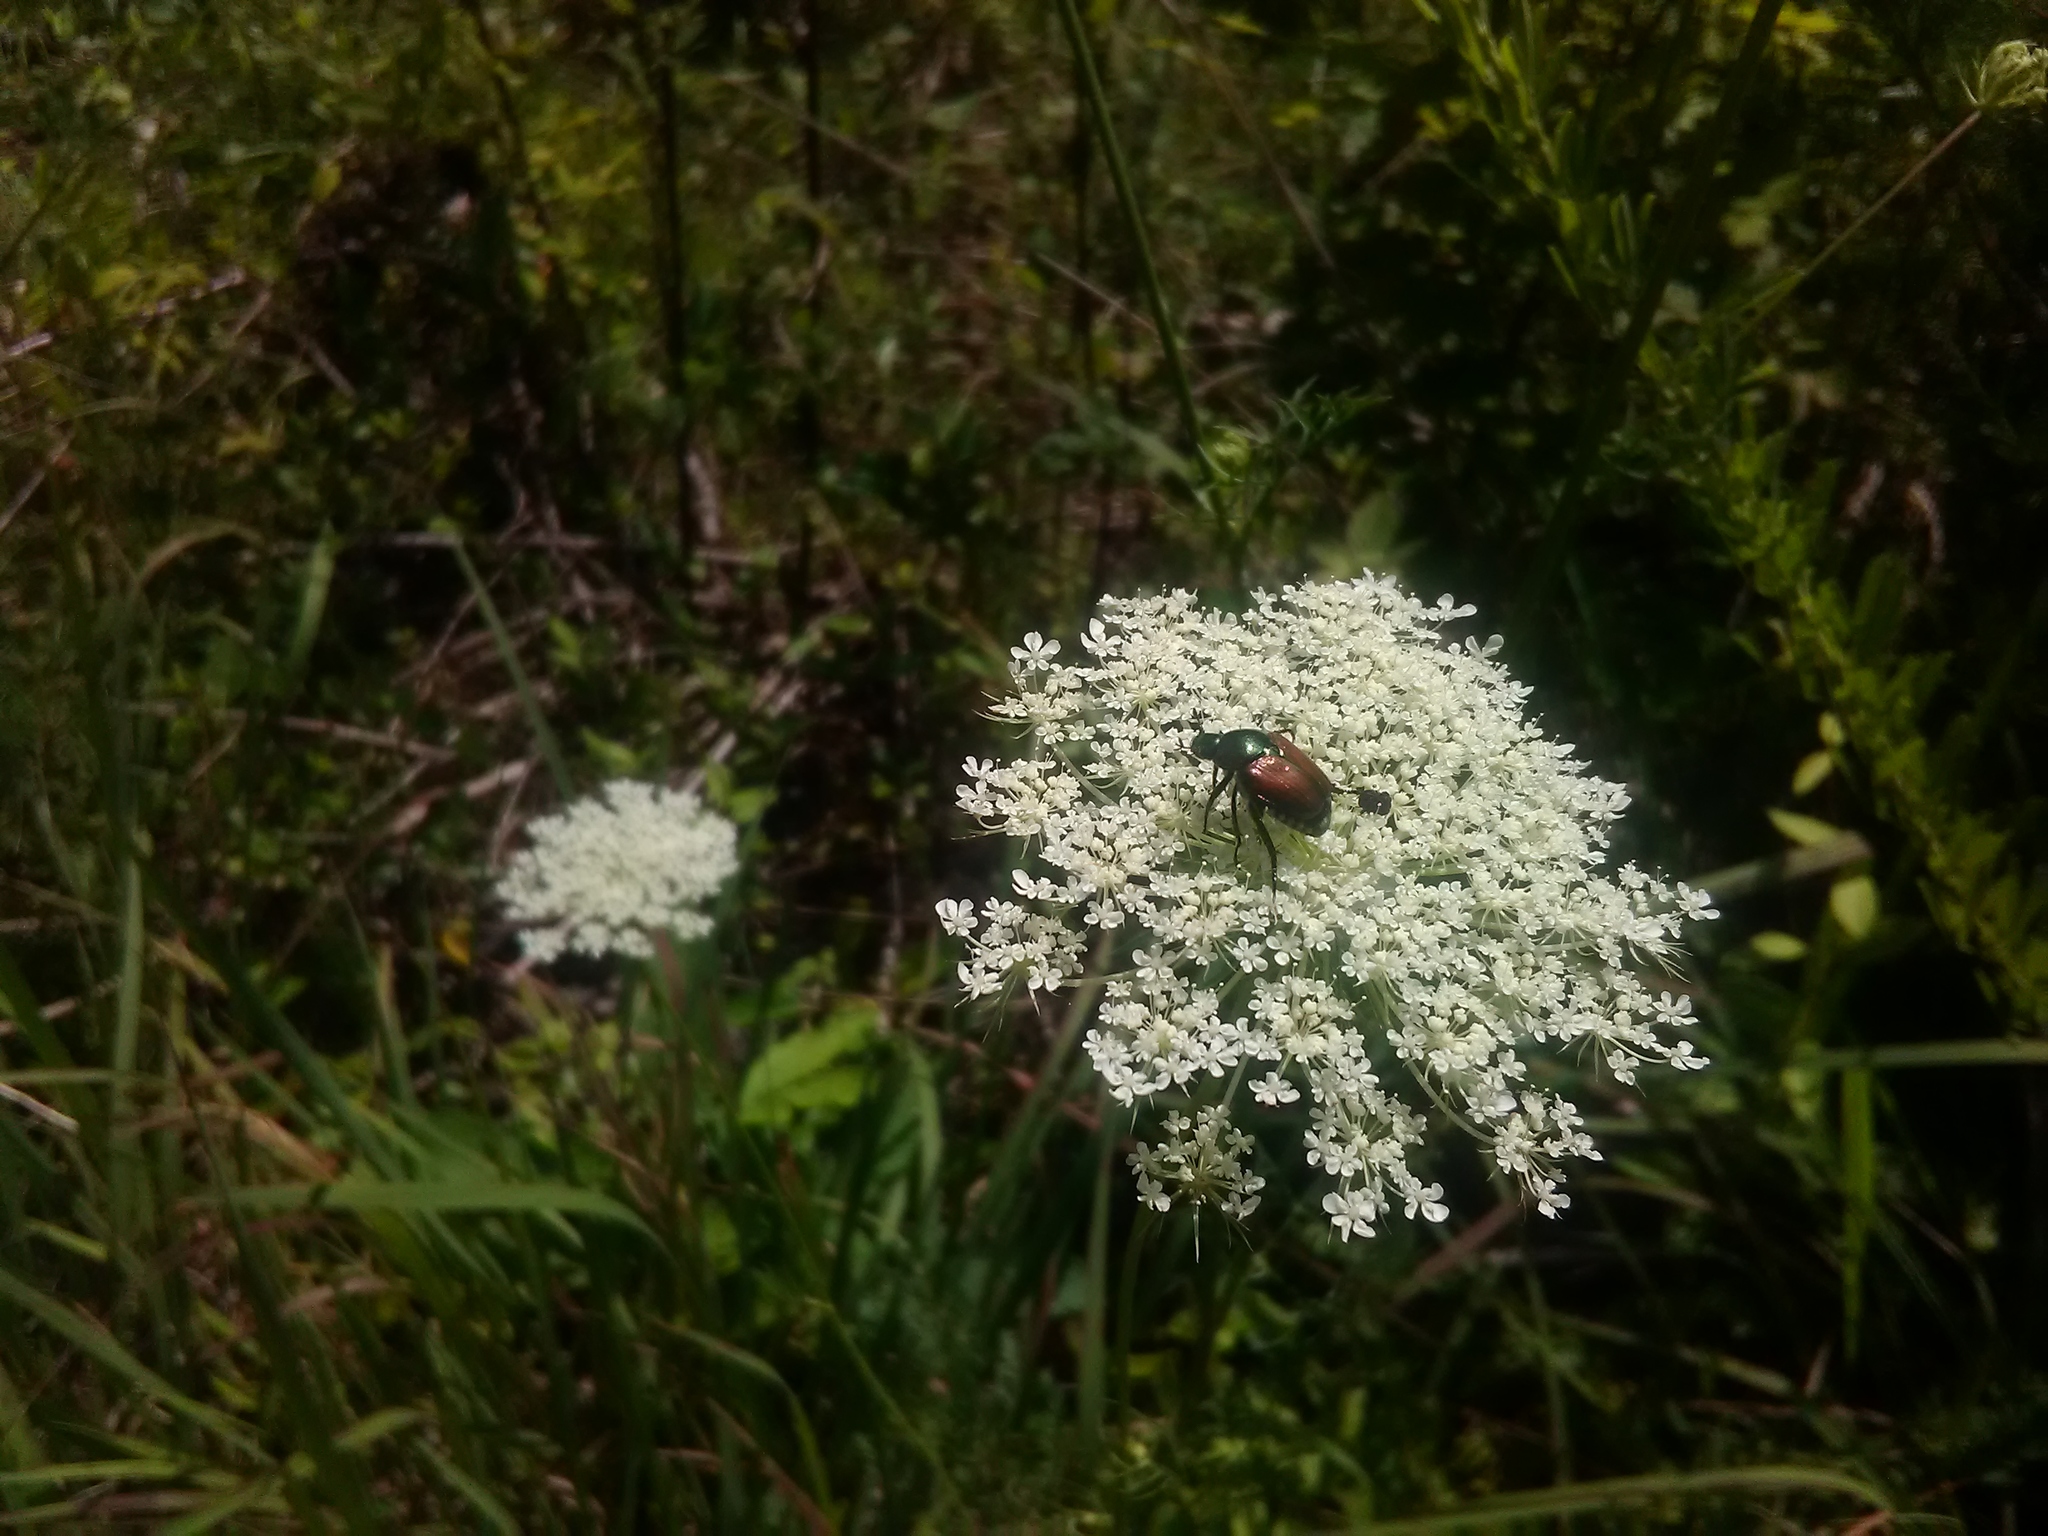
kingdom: Animalia
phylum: Arthropoda
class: Insecta
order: Coleoptera
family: Scarabaeidae
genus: Popillia
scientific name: Popillia japonica
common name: Japanese beetle
